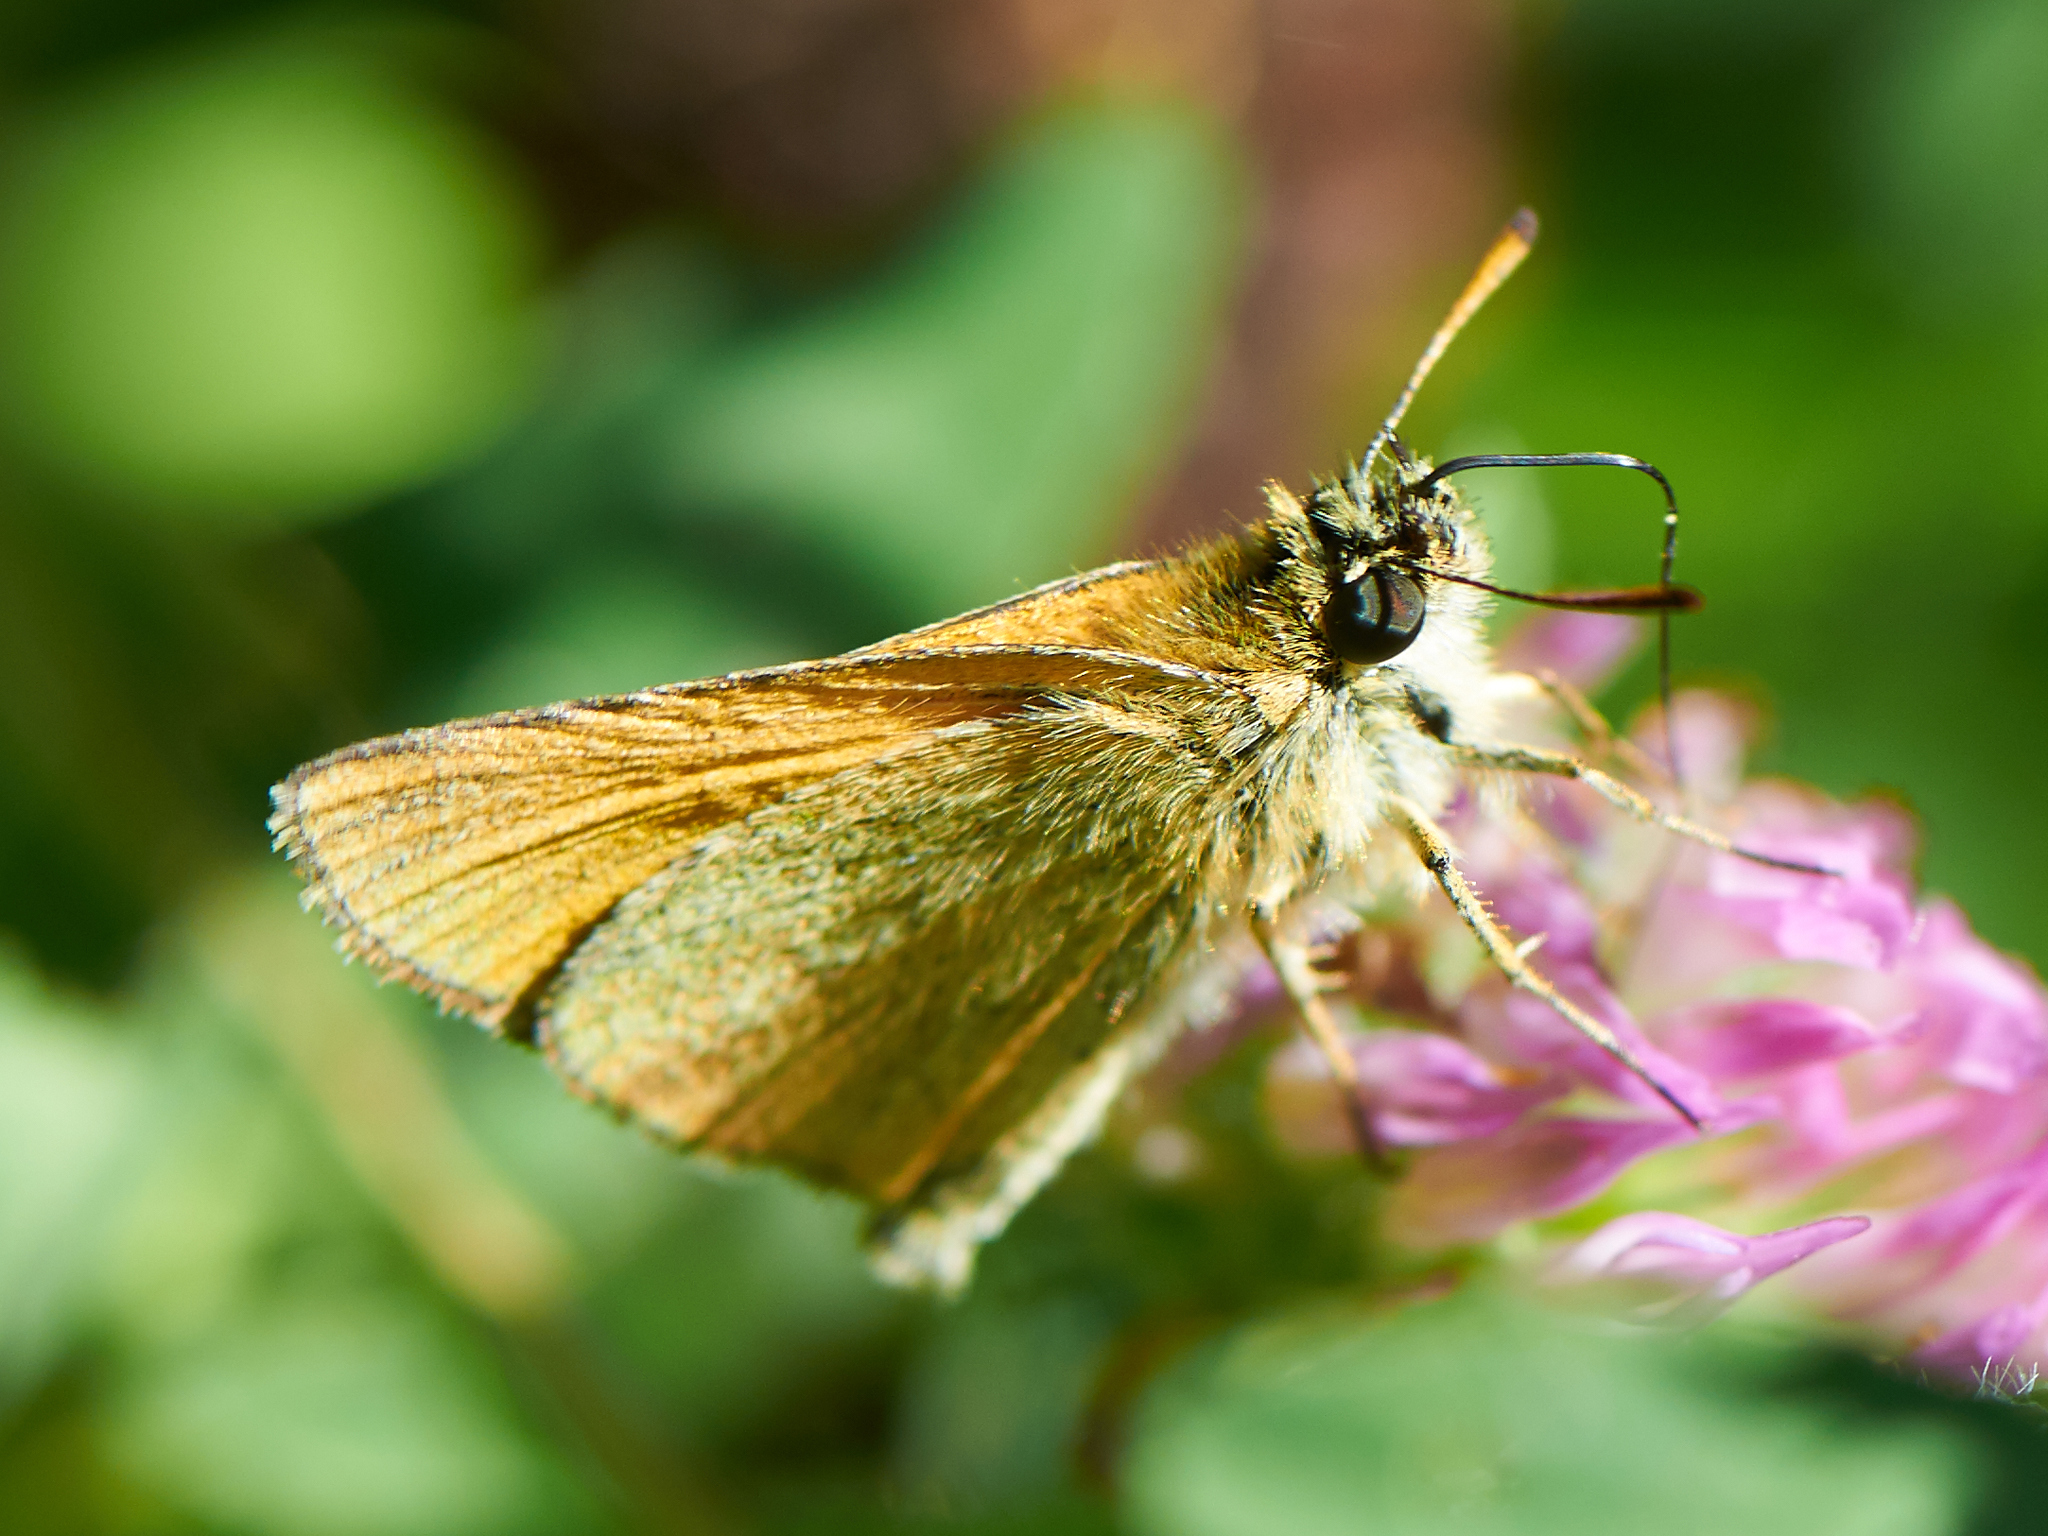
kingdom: Animalia
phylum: Arthropoda
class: Insecta
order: Lepidoptera
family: Hesperiidae
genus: Thymelicus
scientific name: Thymelicus lineola
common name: Essex skipper
